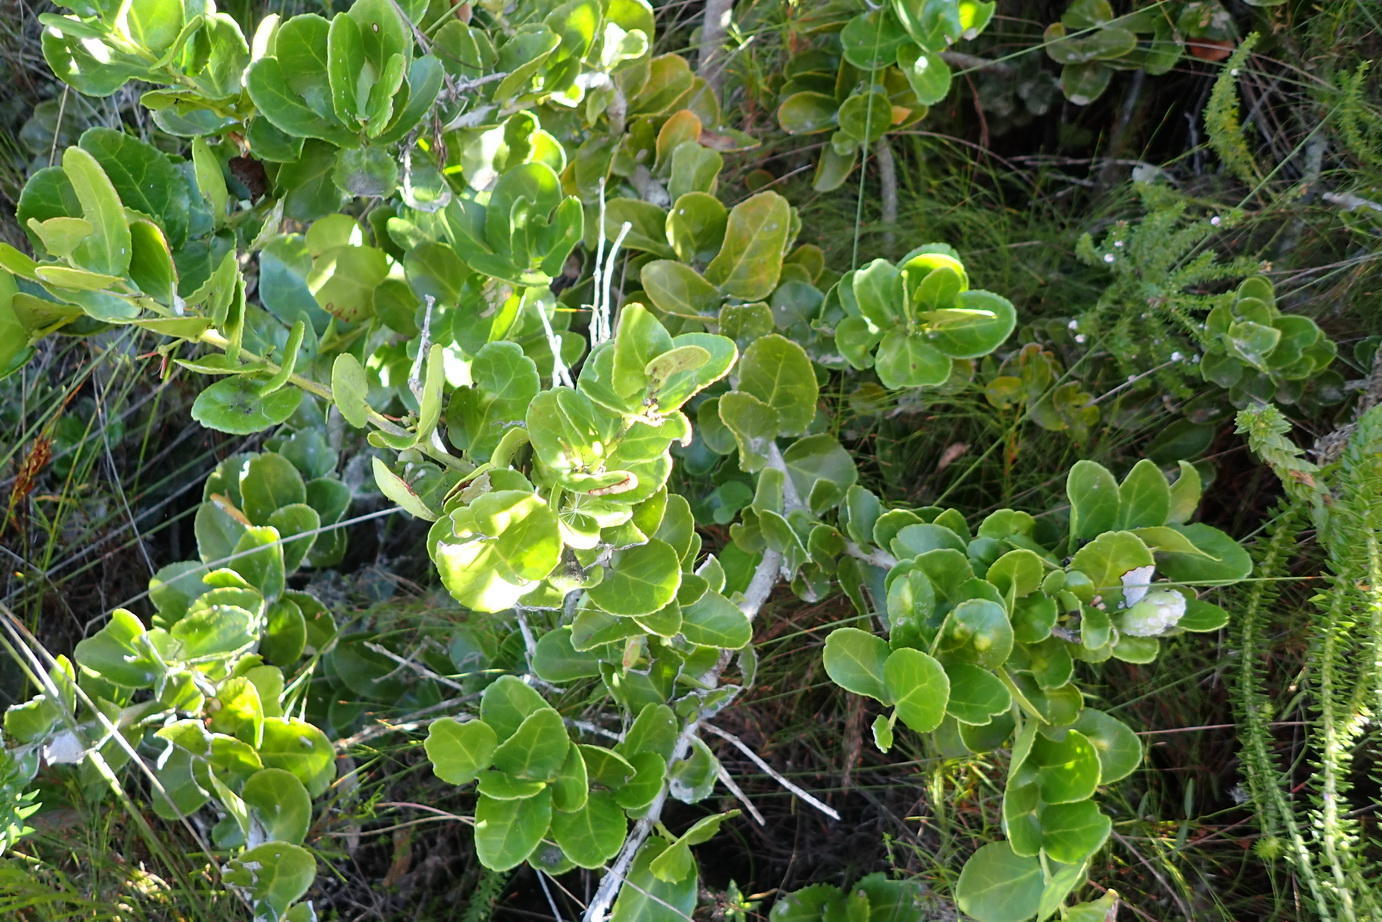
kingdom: Plantae
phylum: Tracheophyta
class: Magnoliopsida
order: Celastrales
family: Celastraceae
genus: Mystroxylon
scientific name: Mystroxylon aethiopicum
